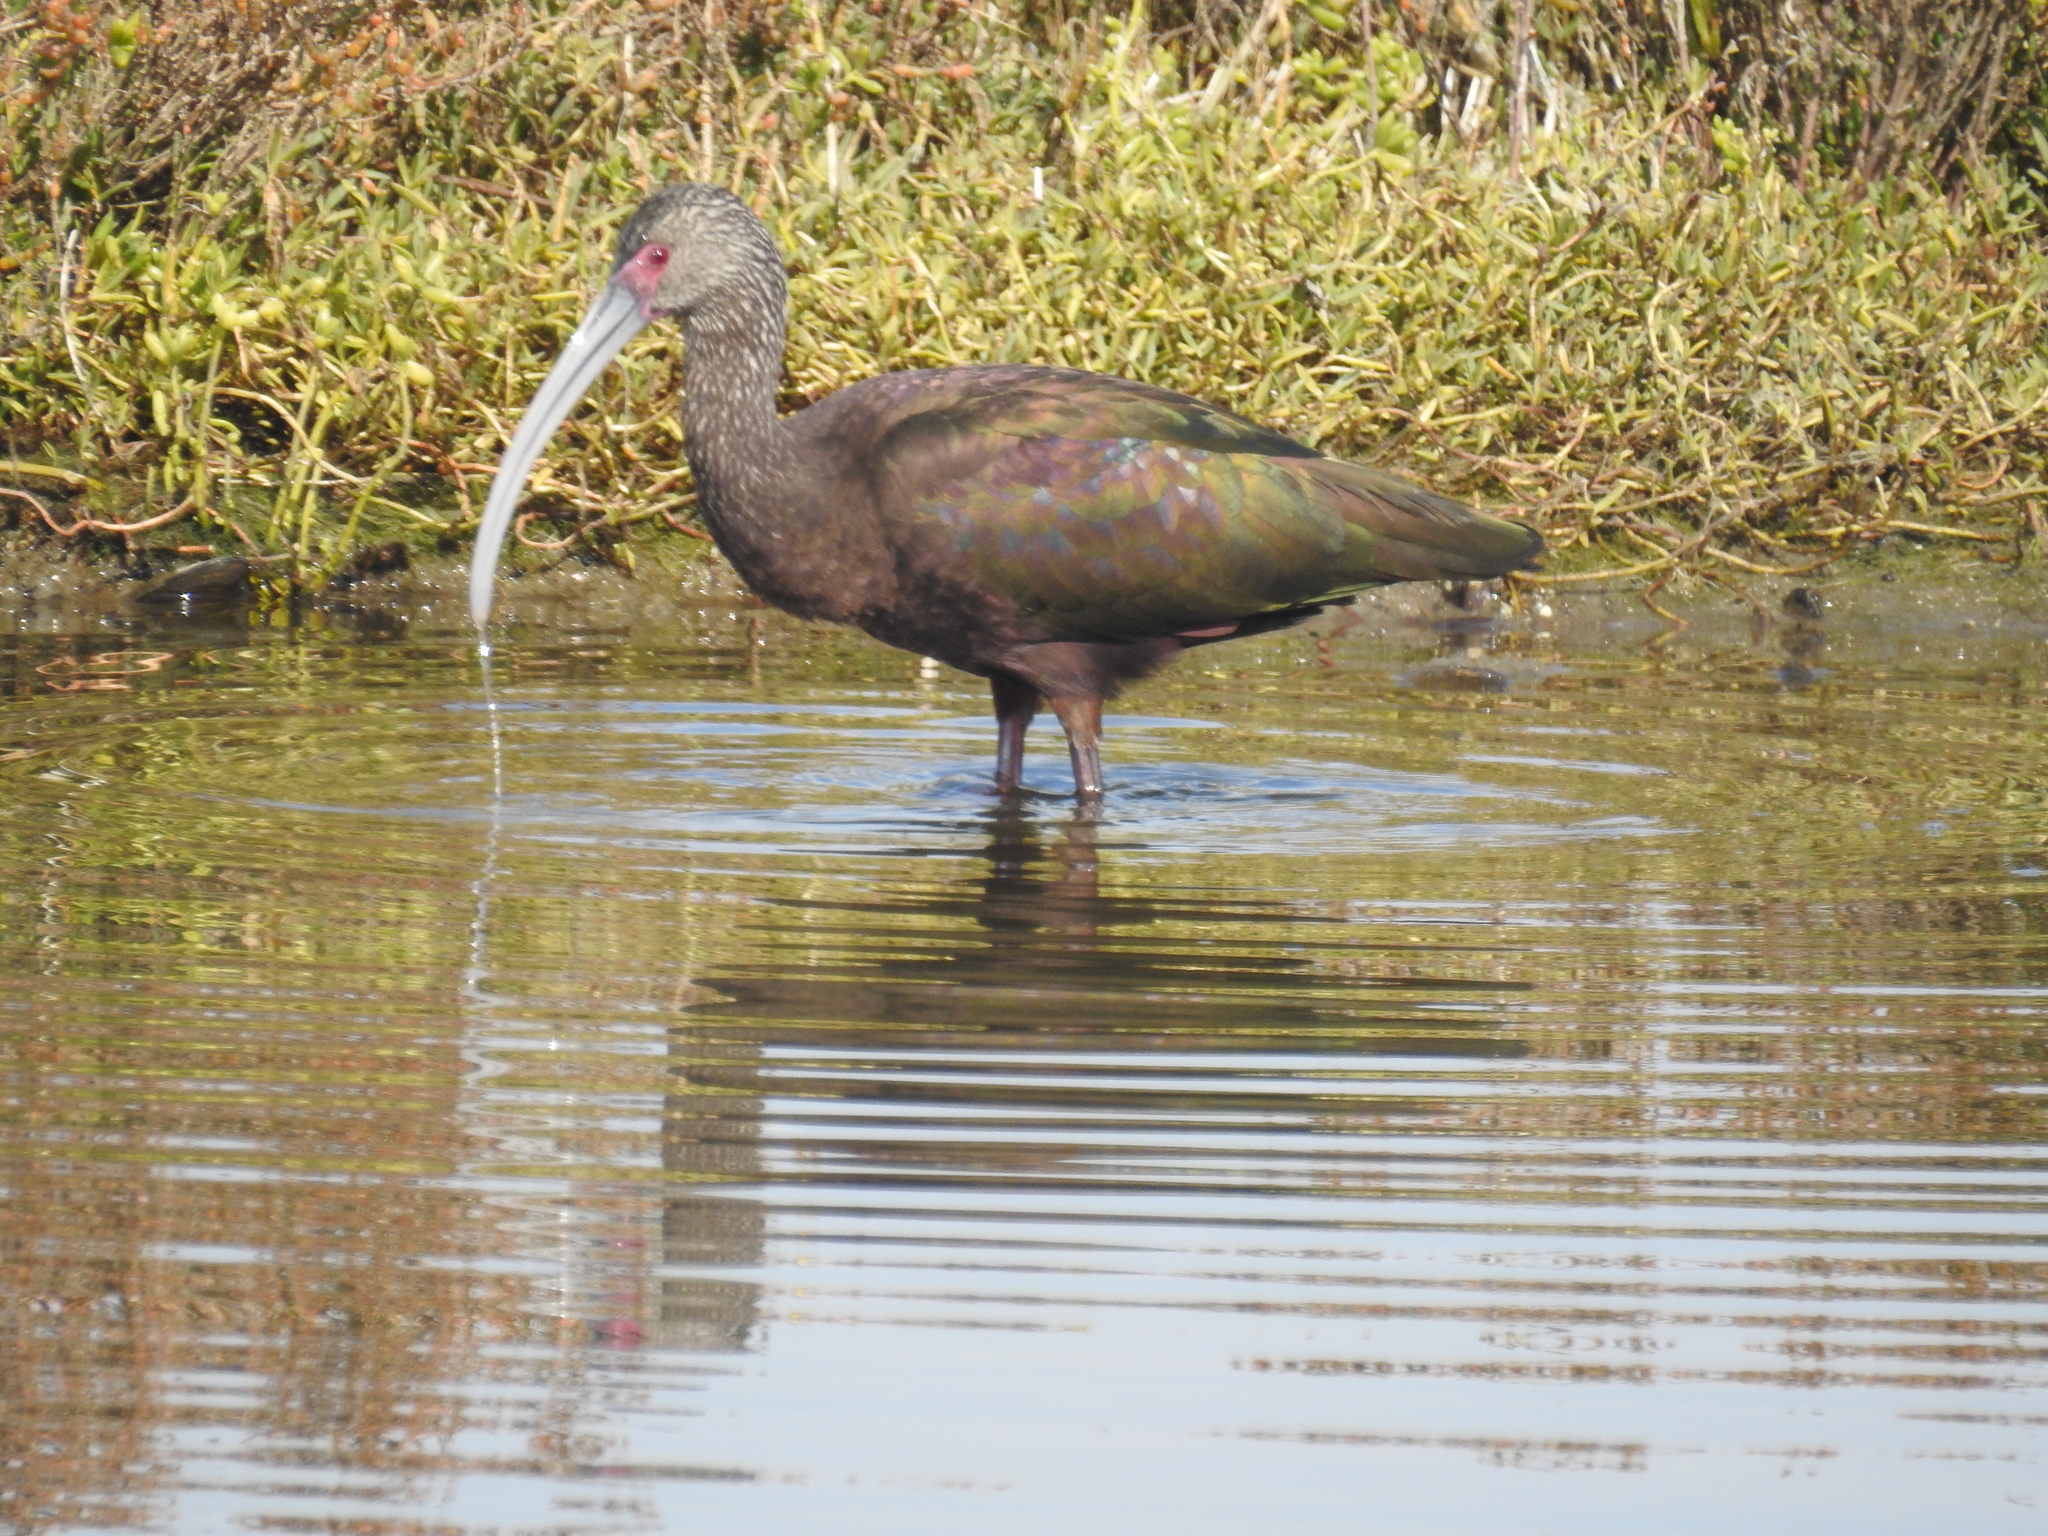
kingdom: Animalia
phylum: Chordata
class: Aves
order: Pelecaniformes
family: Threskiornithidae
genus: Plegadis
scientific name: Plegadis chihi
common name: White-faced ibis
